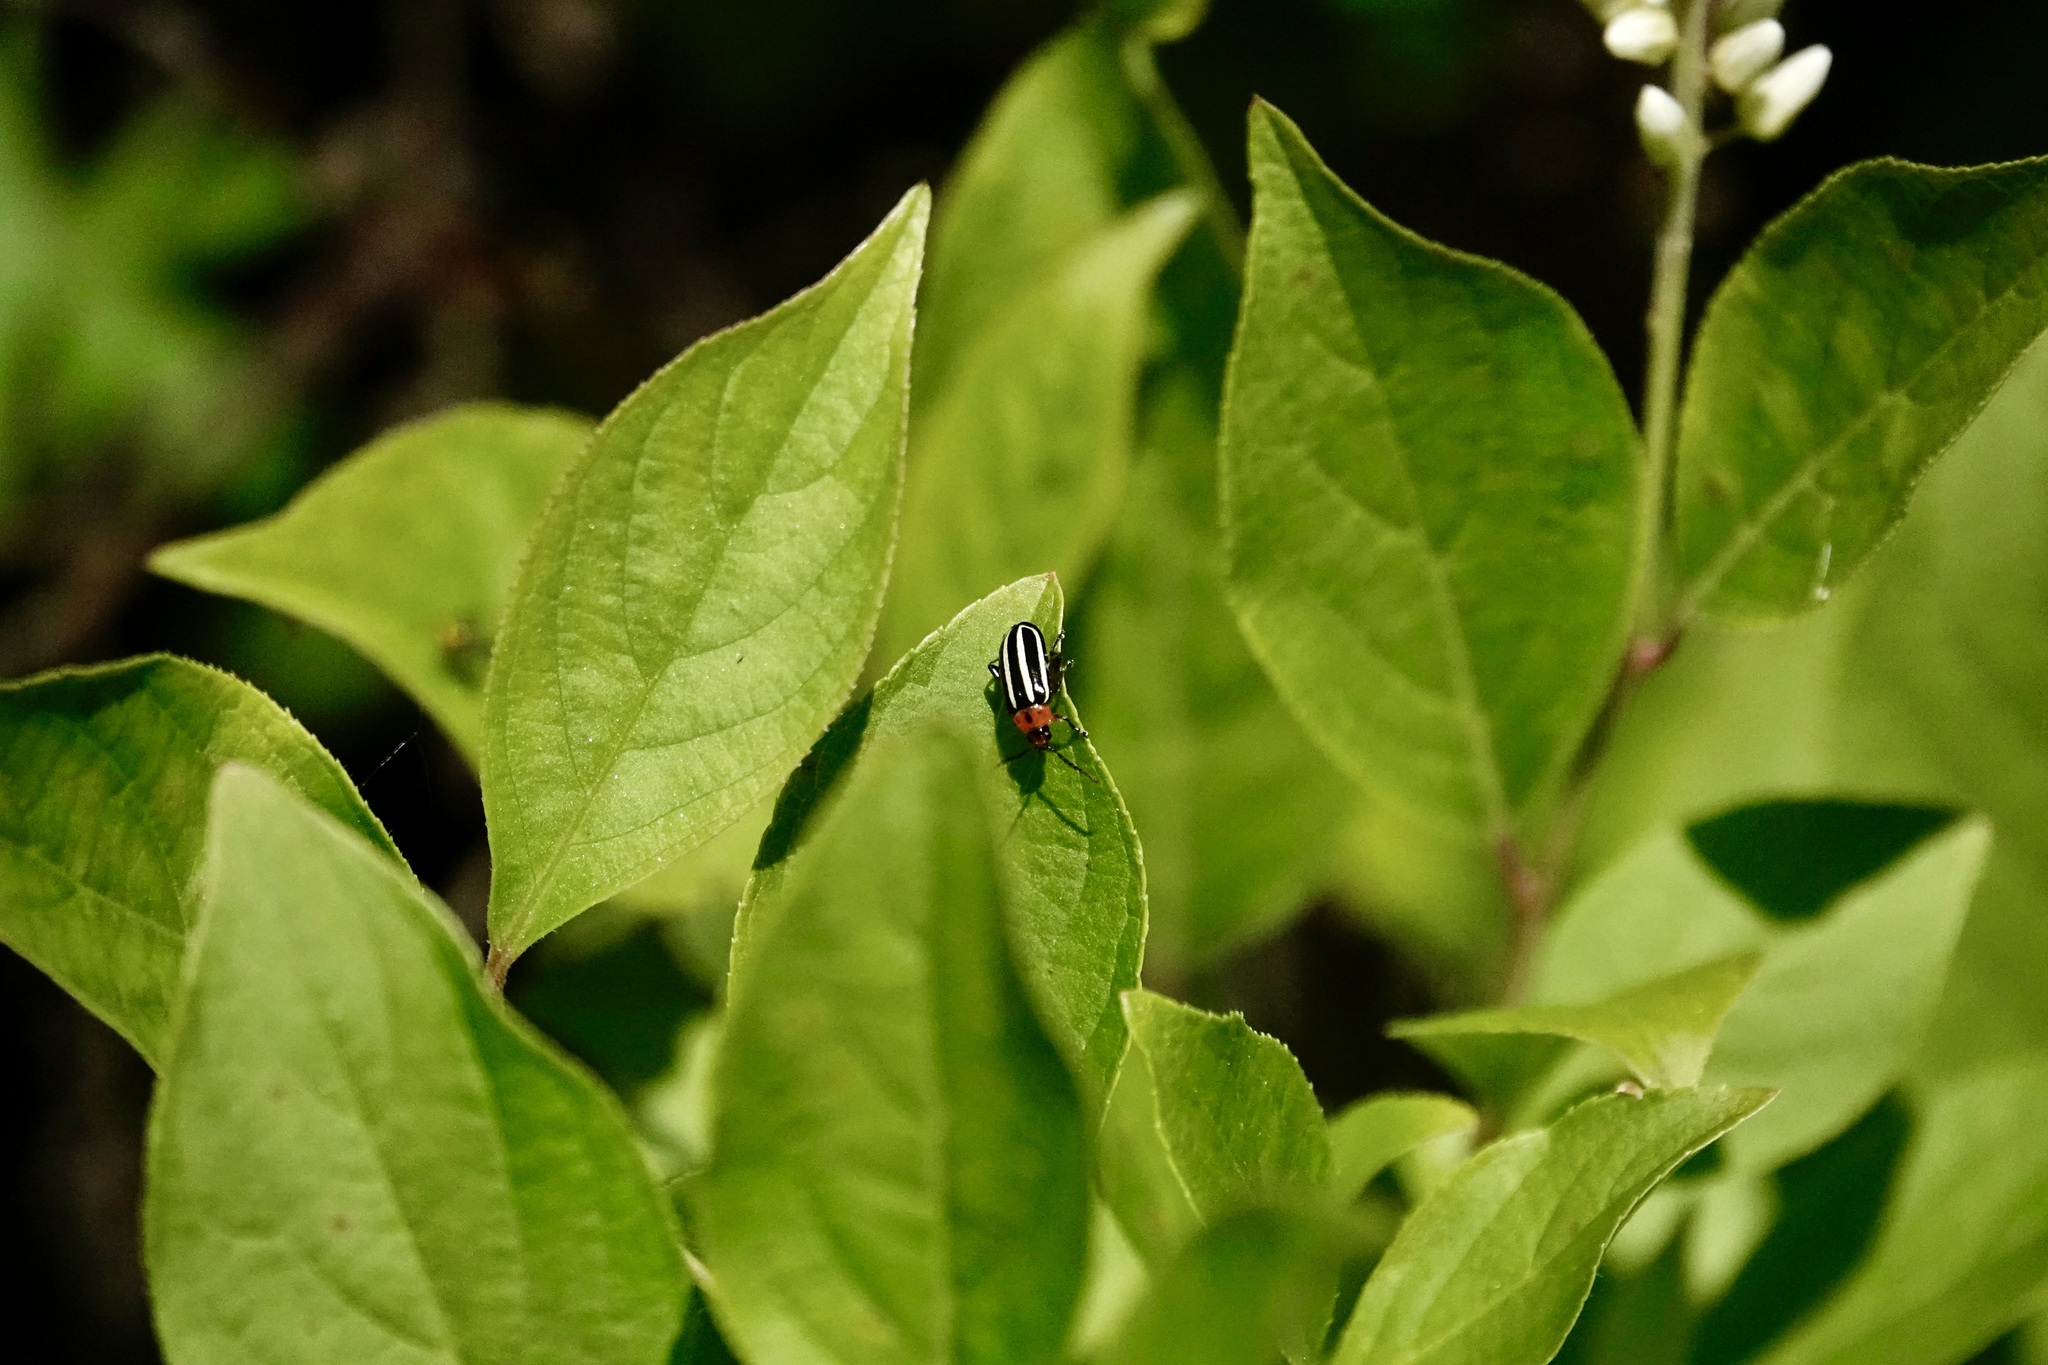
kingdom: Animalia
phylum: Arthropoda
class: Insecta
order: Coleoptera
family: Chrysomelidae
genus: Disonycha
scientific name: Disonycha glabrata
